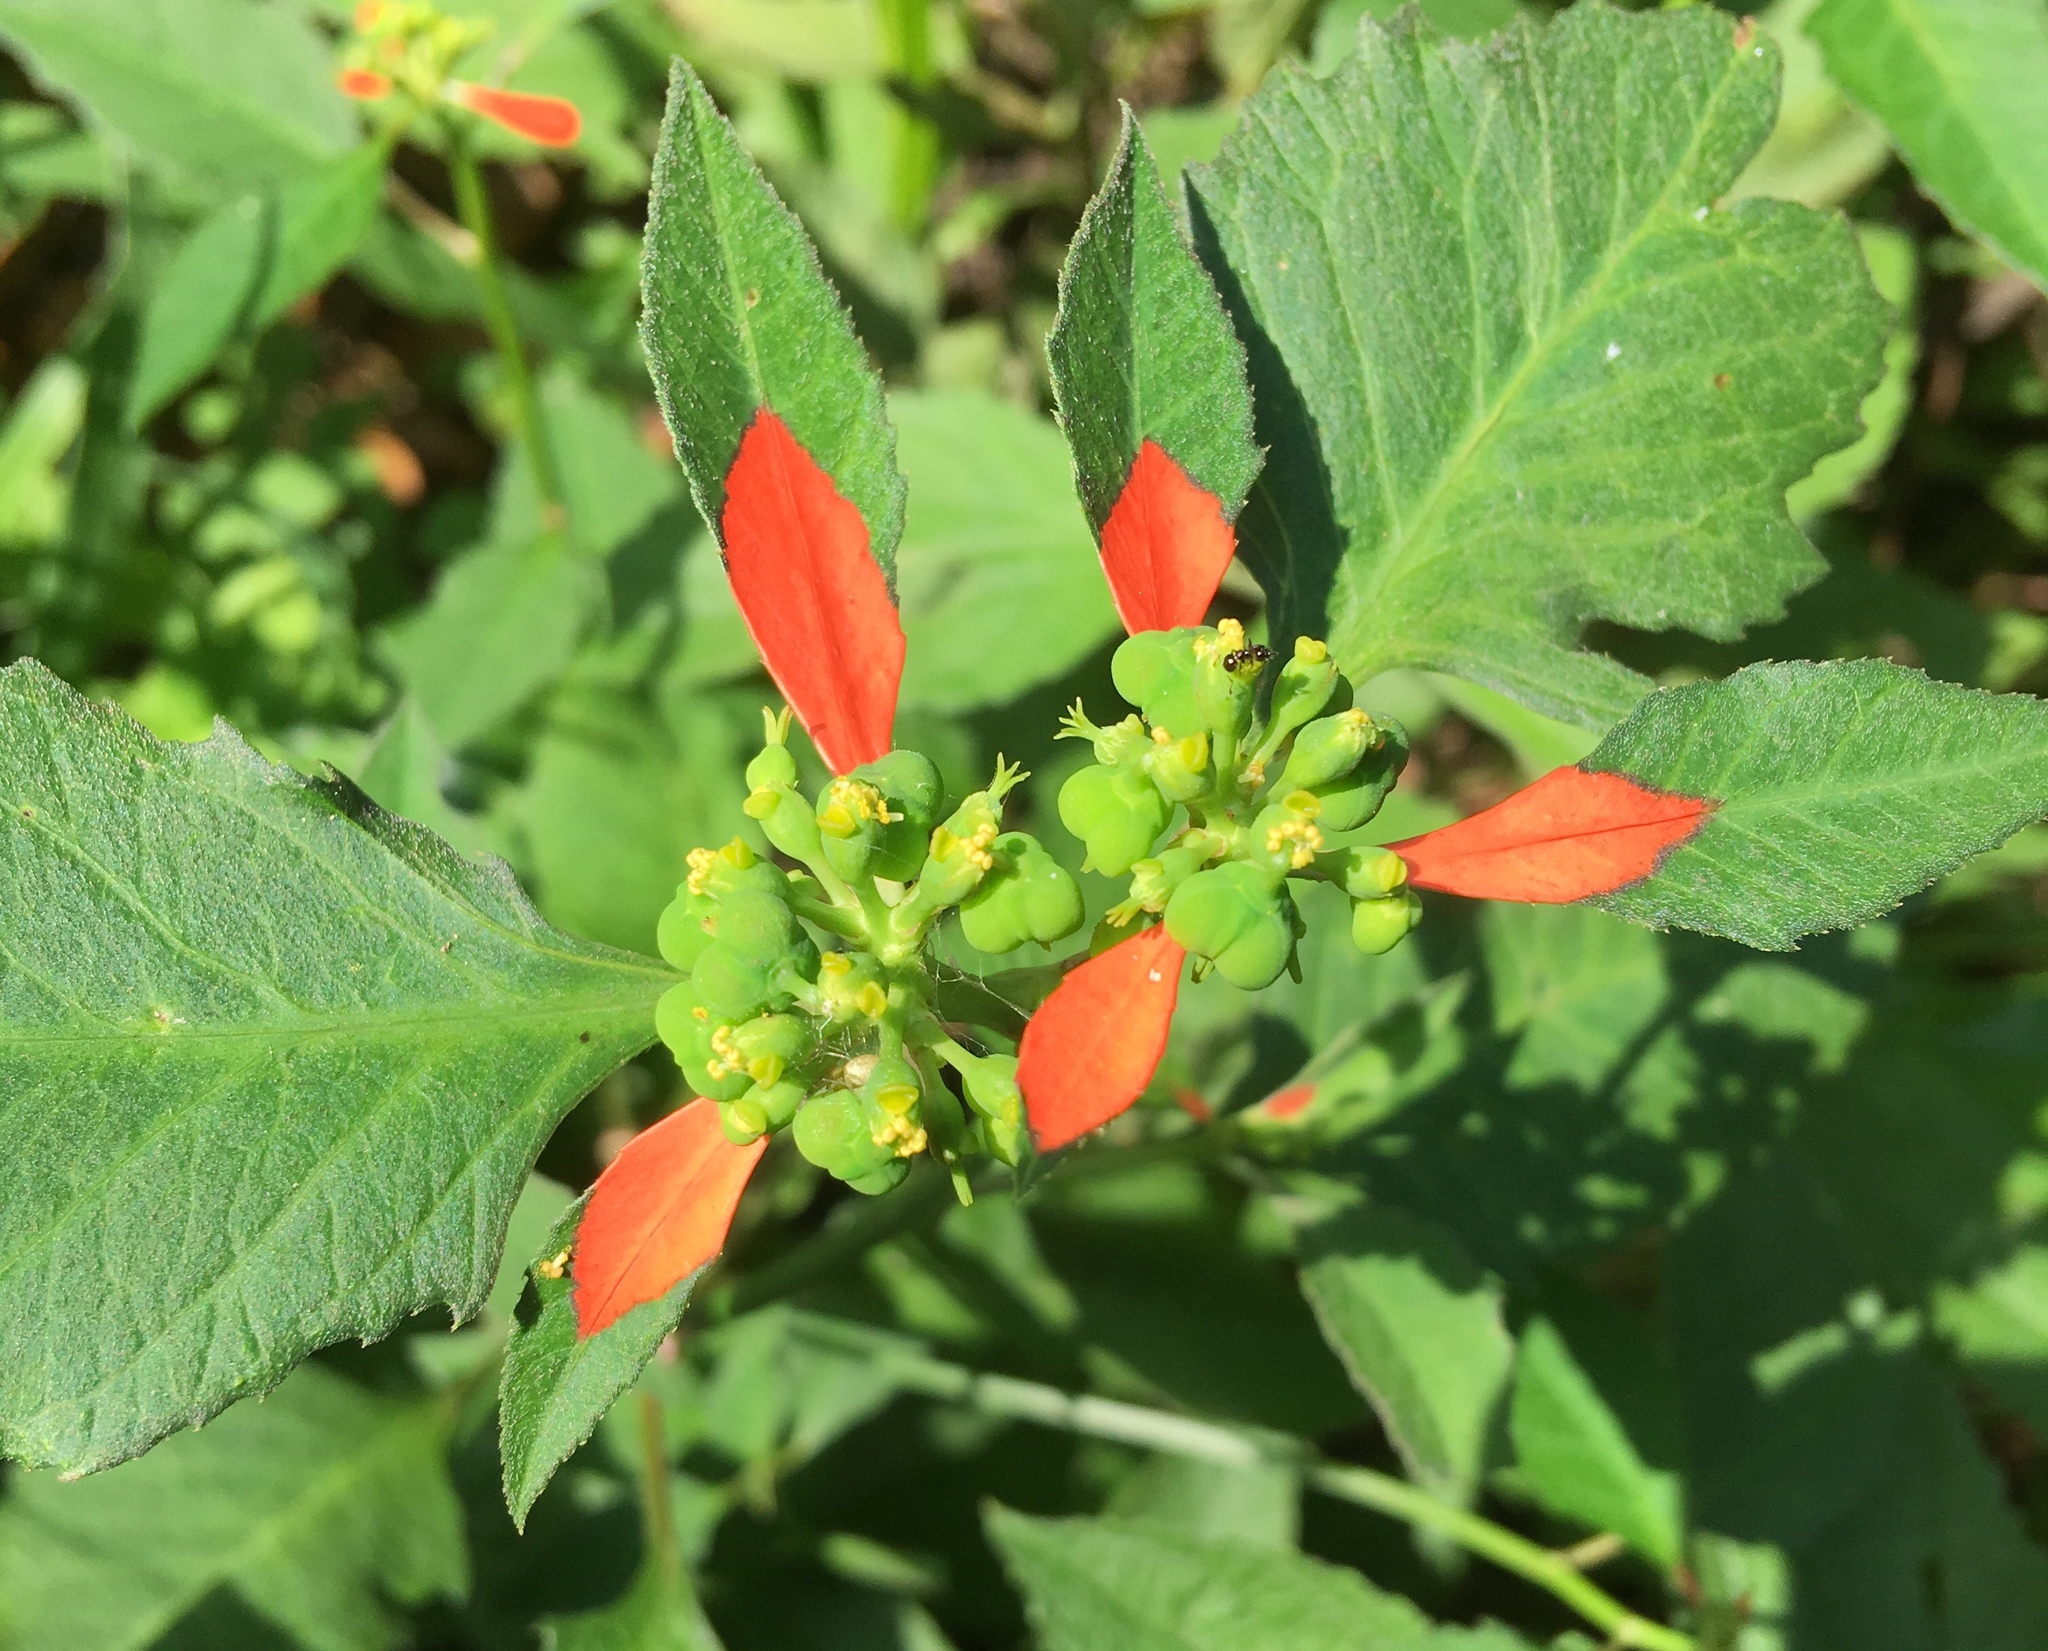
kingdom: Plantae
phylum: Tracheophyta
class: Magnoliopsida
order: Malpighiales
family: Euphorbiaceae
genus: Euphorbia
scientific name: Euphorbia heterophylla
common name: Mexican fireplant
